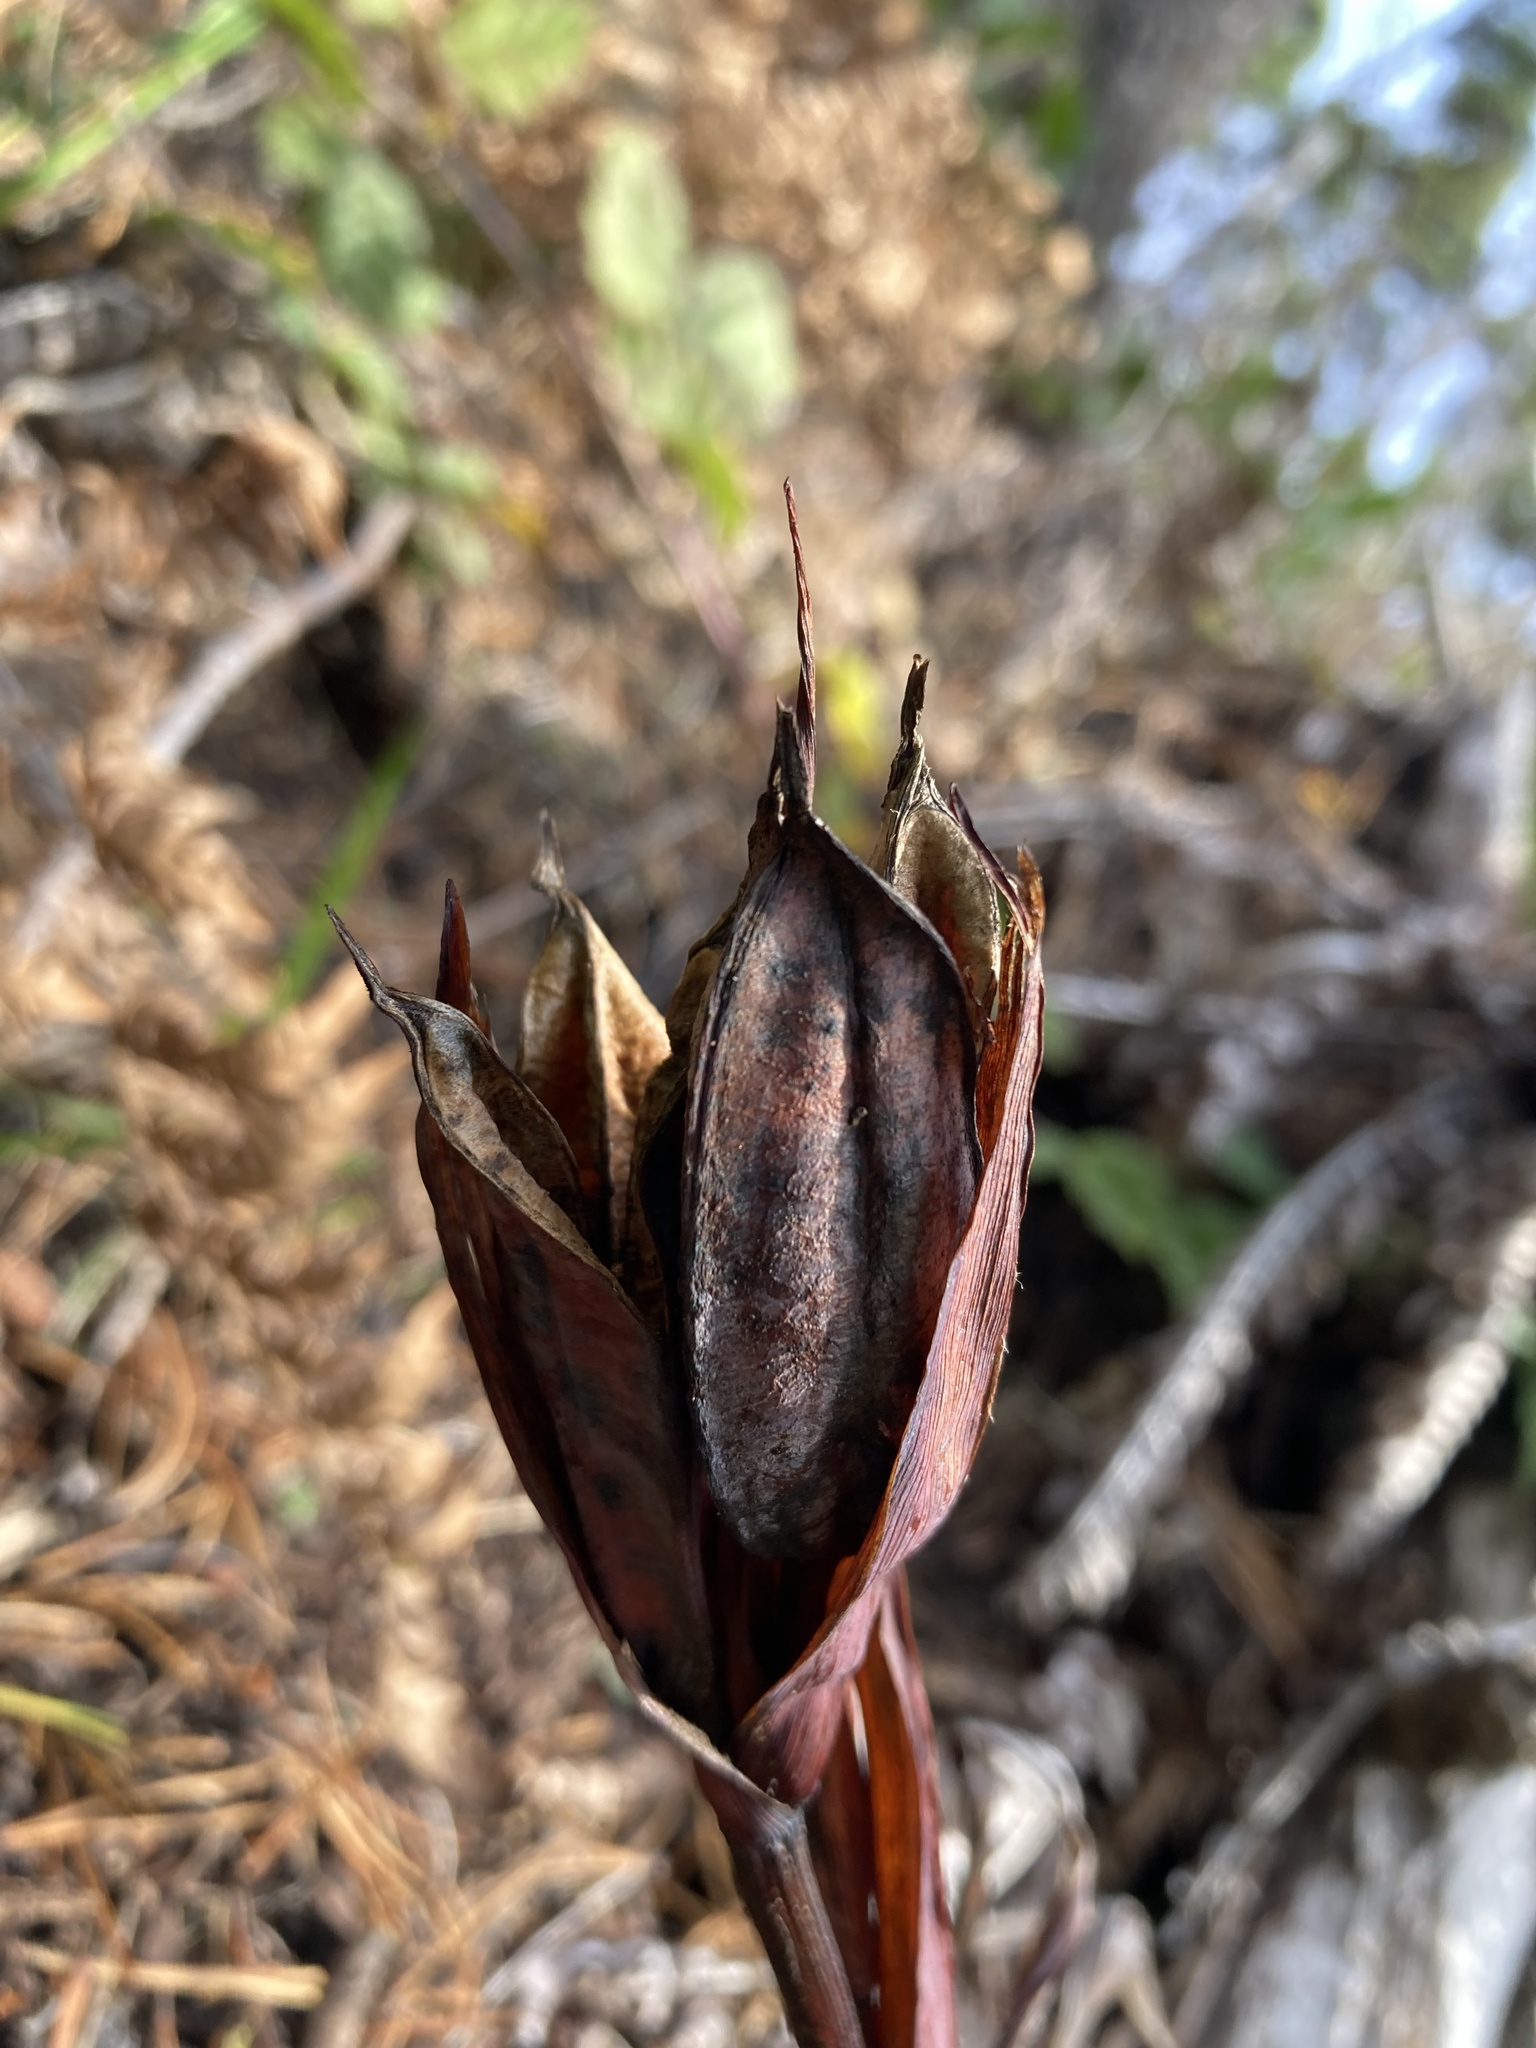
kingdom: Plantae
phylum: Tracheophyta
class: Liliopsida
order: Asparagales
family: Iridaceae
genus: Iris
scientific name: Iris douglasiana
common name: Marin iris
